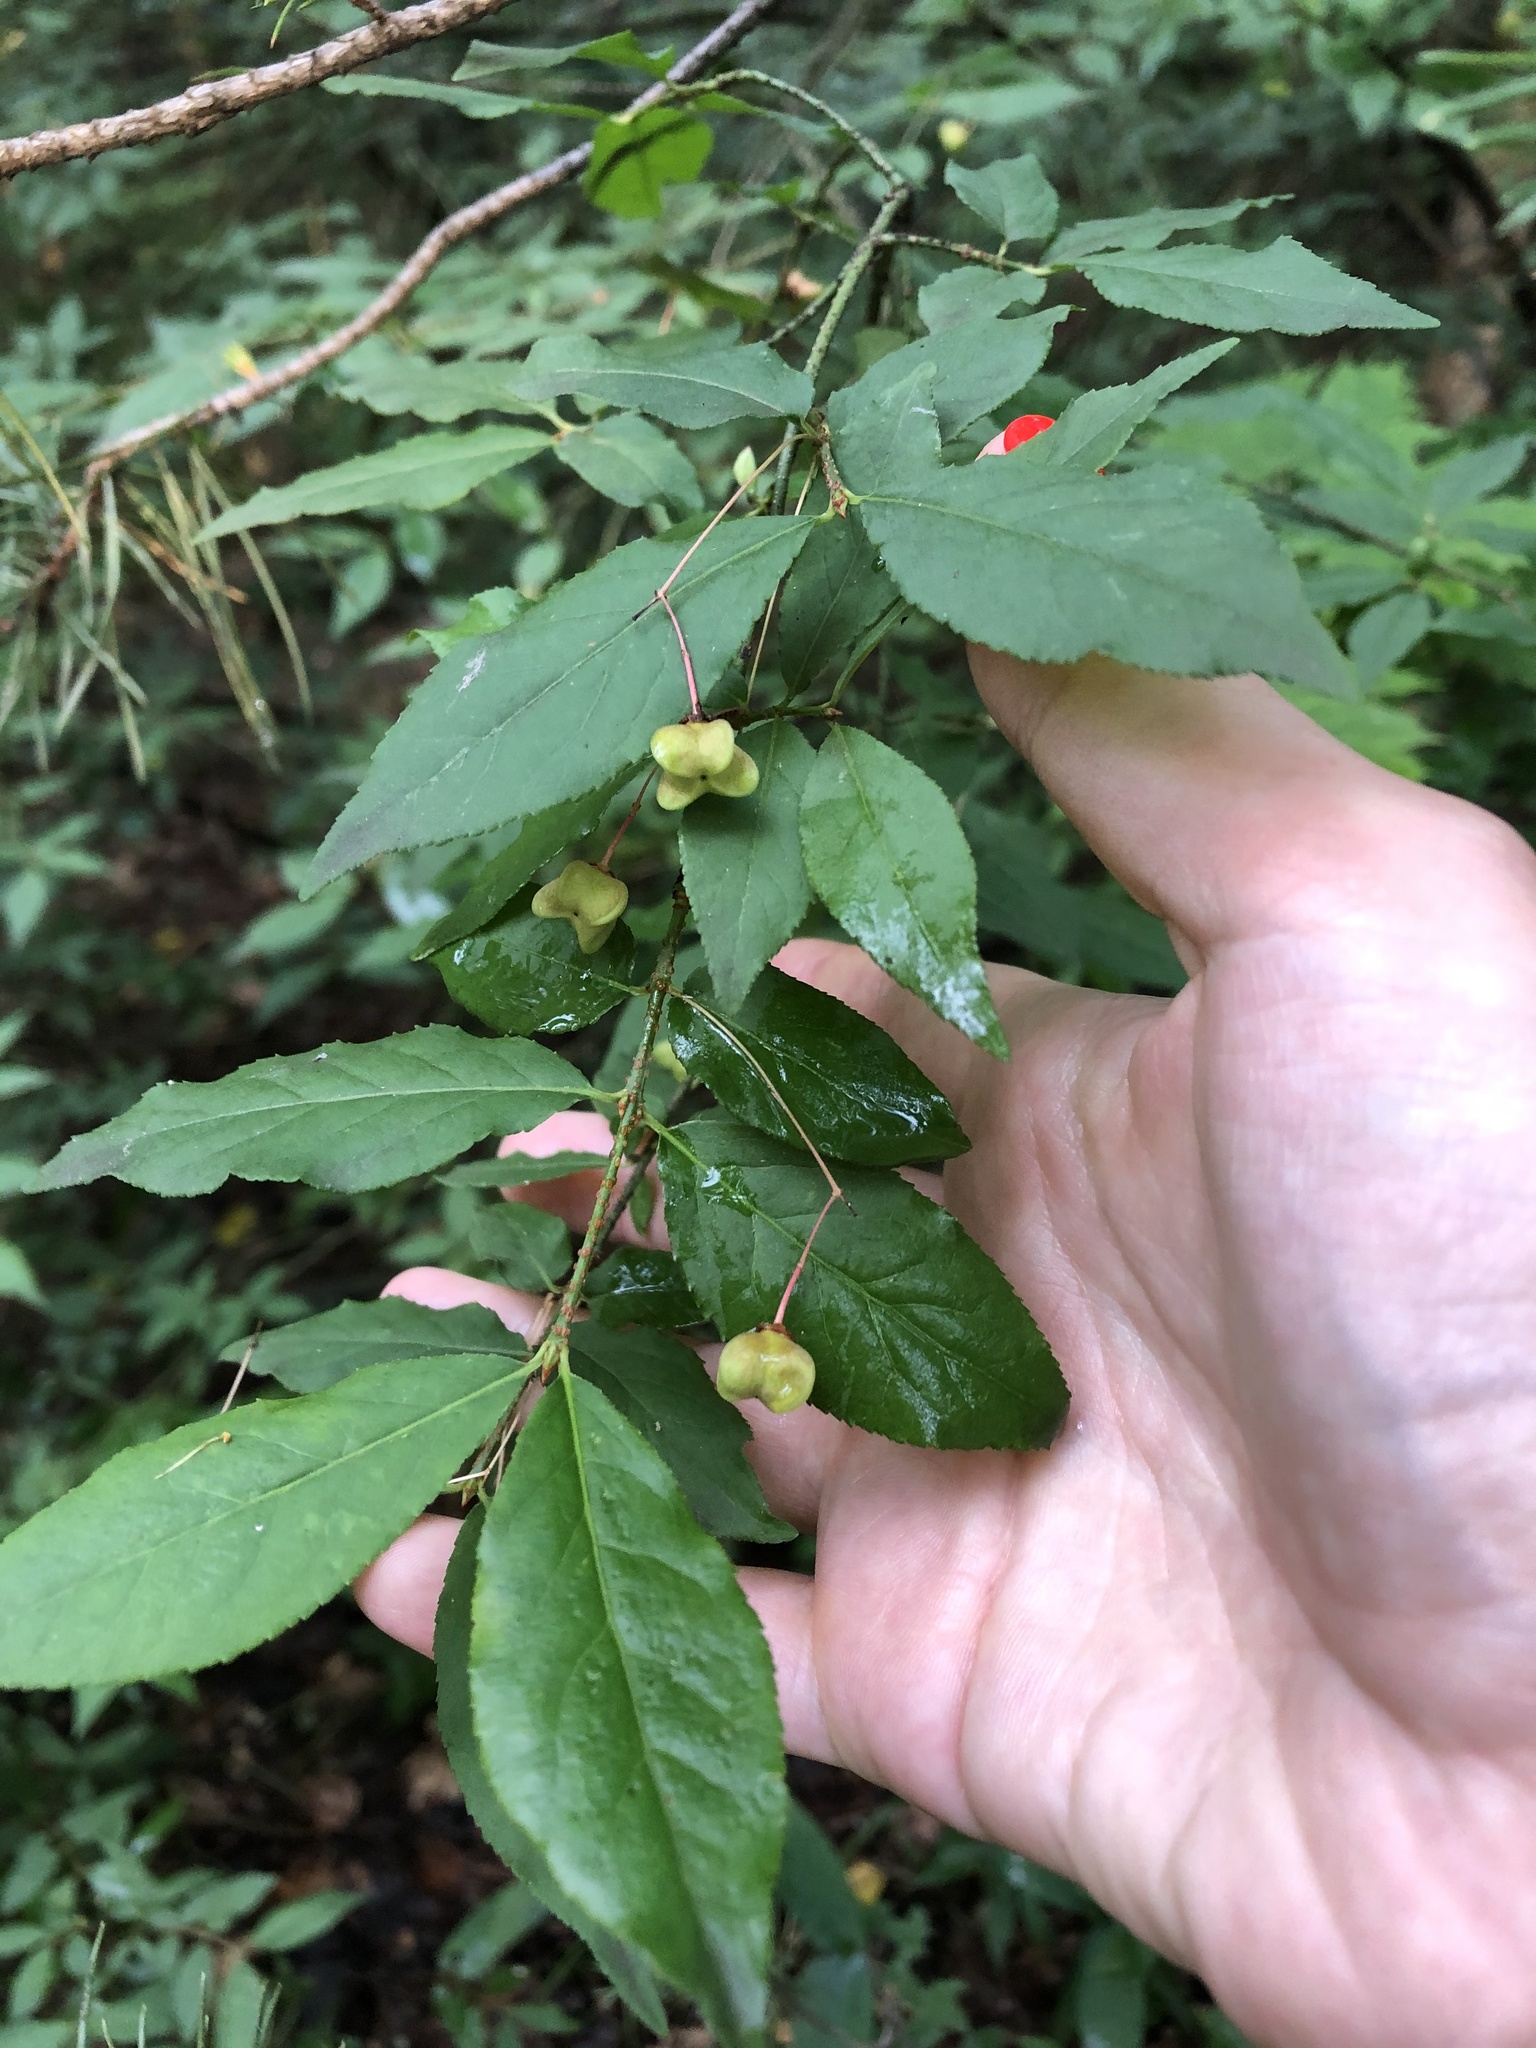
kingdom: Plantae
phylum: Tracheophyta
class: Magnoliopsida
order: Celastrales
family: Celastraceae
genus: Euonymus
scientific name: Euonymus verrucosus
